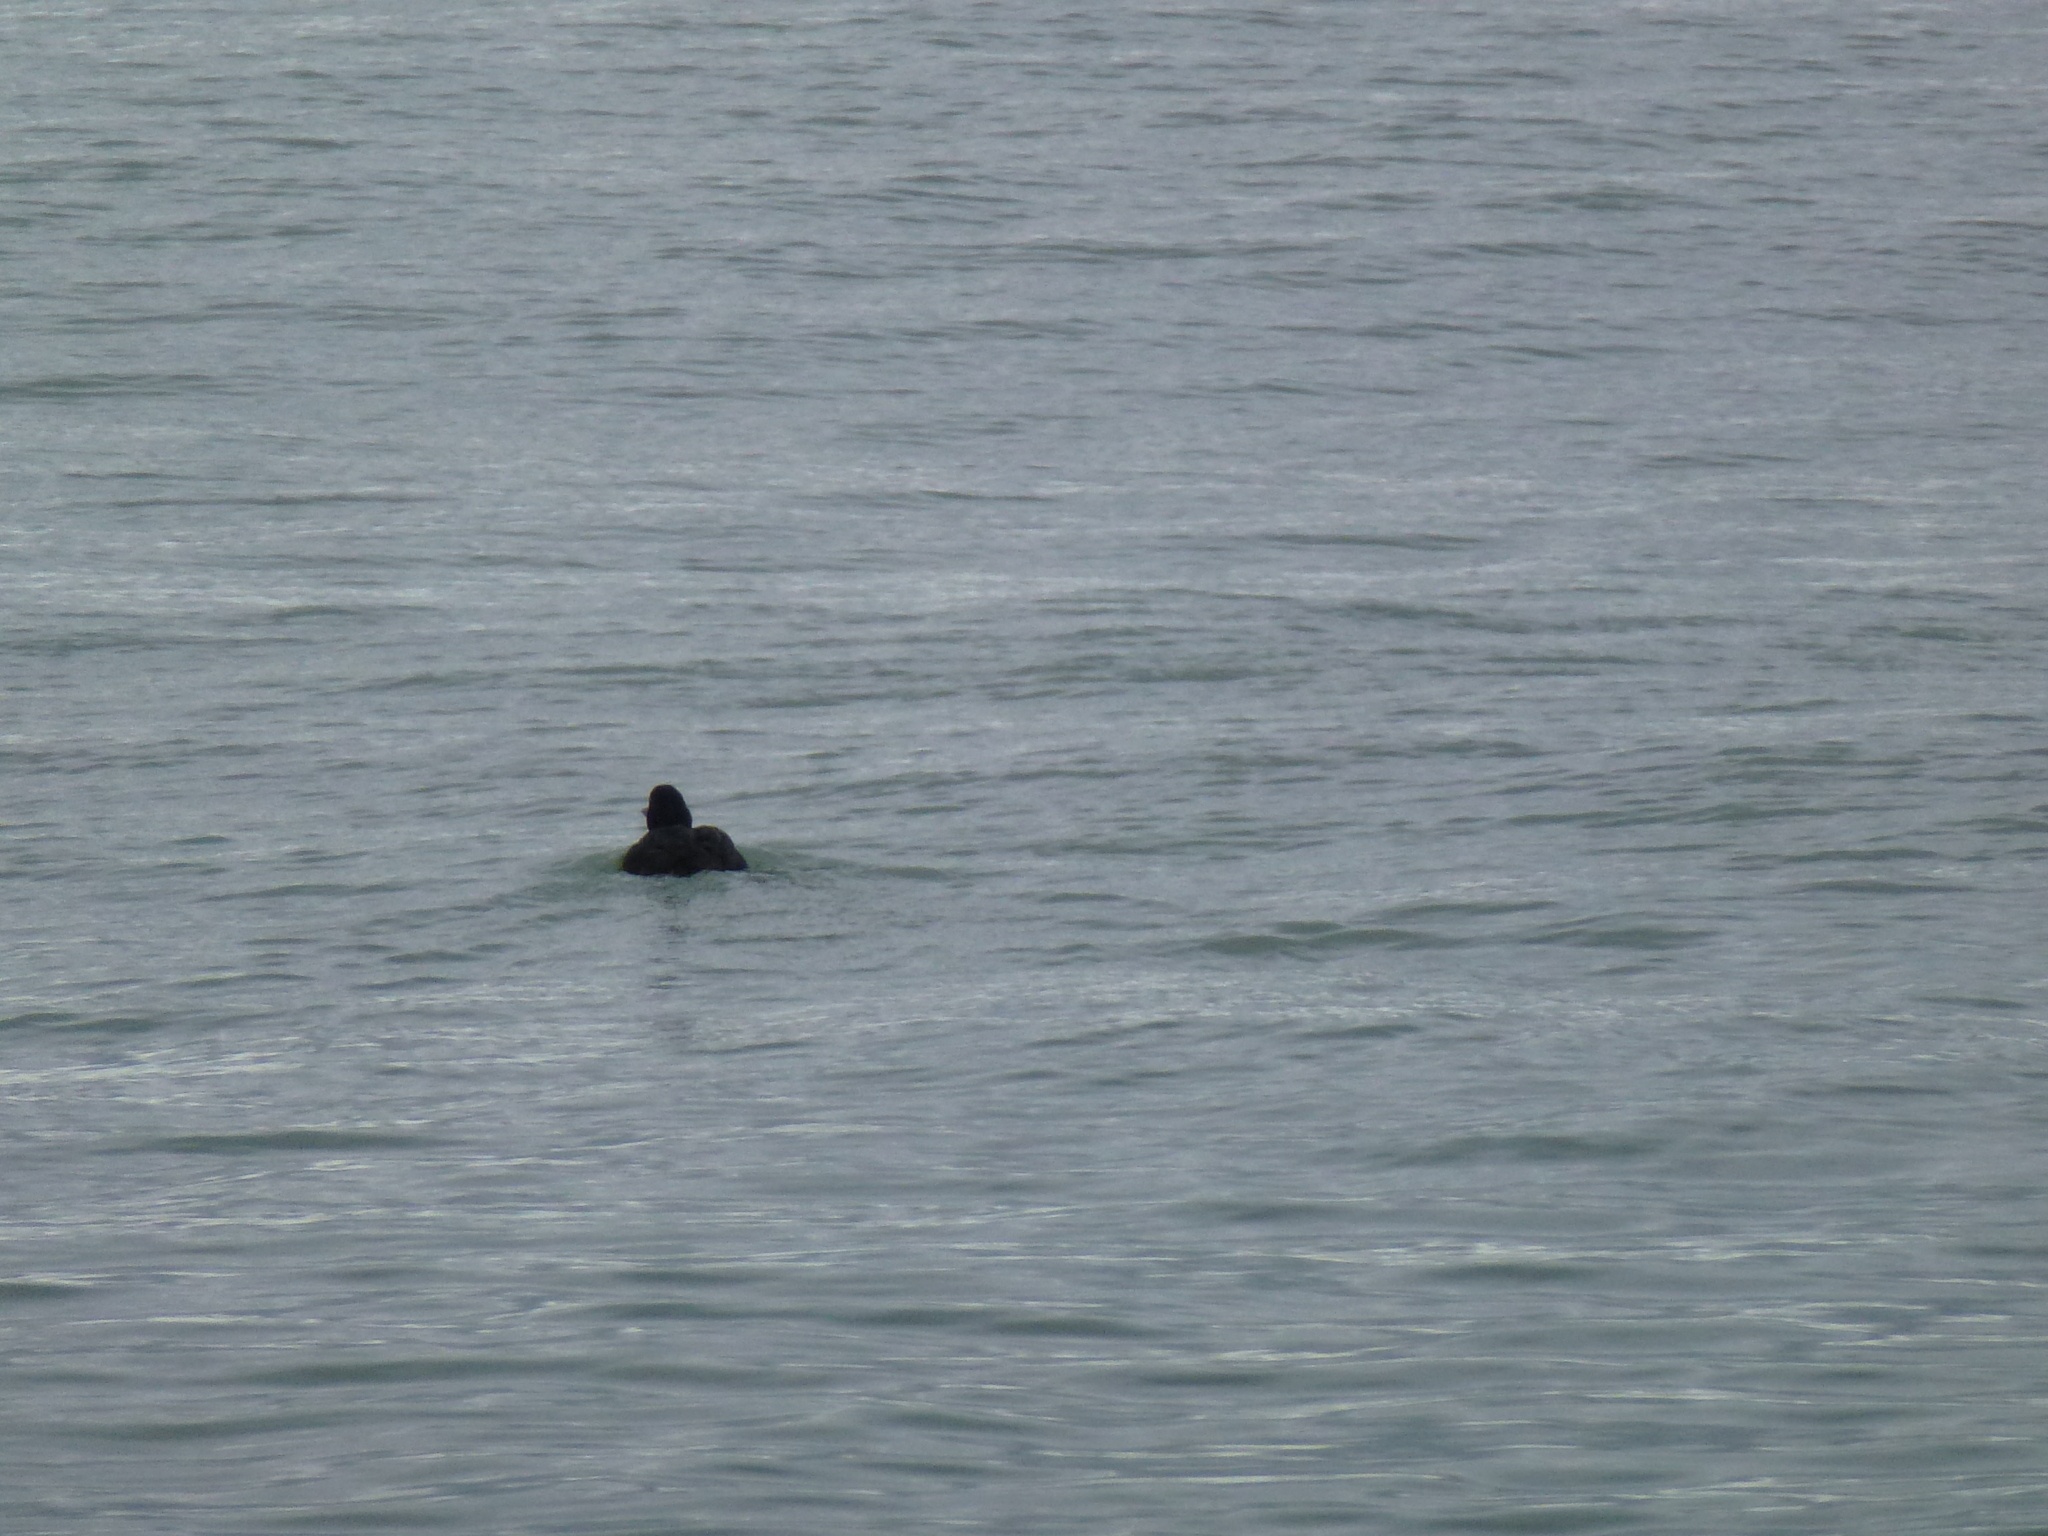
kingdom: Animalia
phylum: Chordata
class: Aves
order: Anseriformes
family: Anatidae
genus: Melanitta
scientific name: Melanitta nigra
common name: Common scoter
